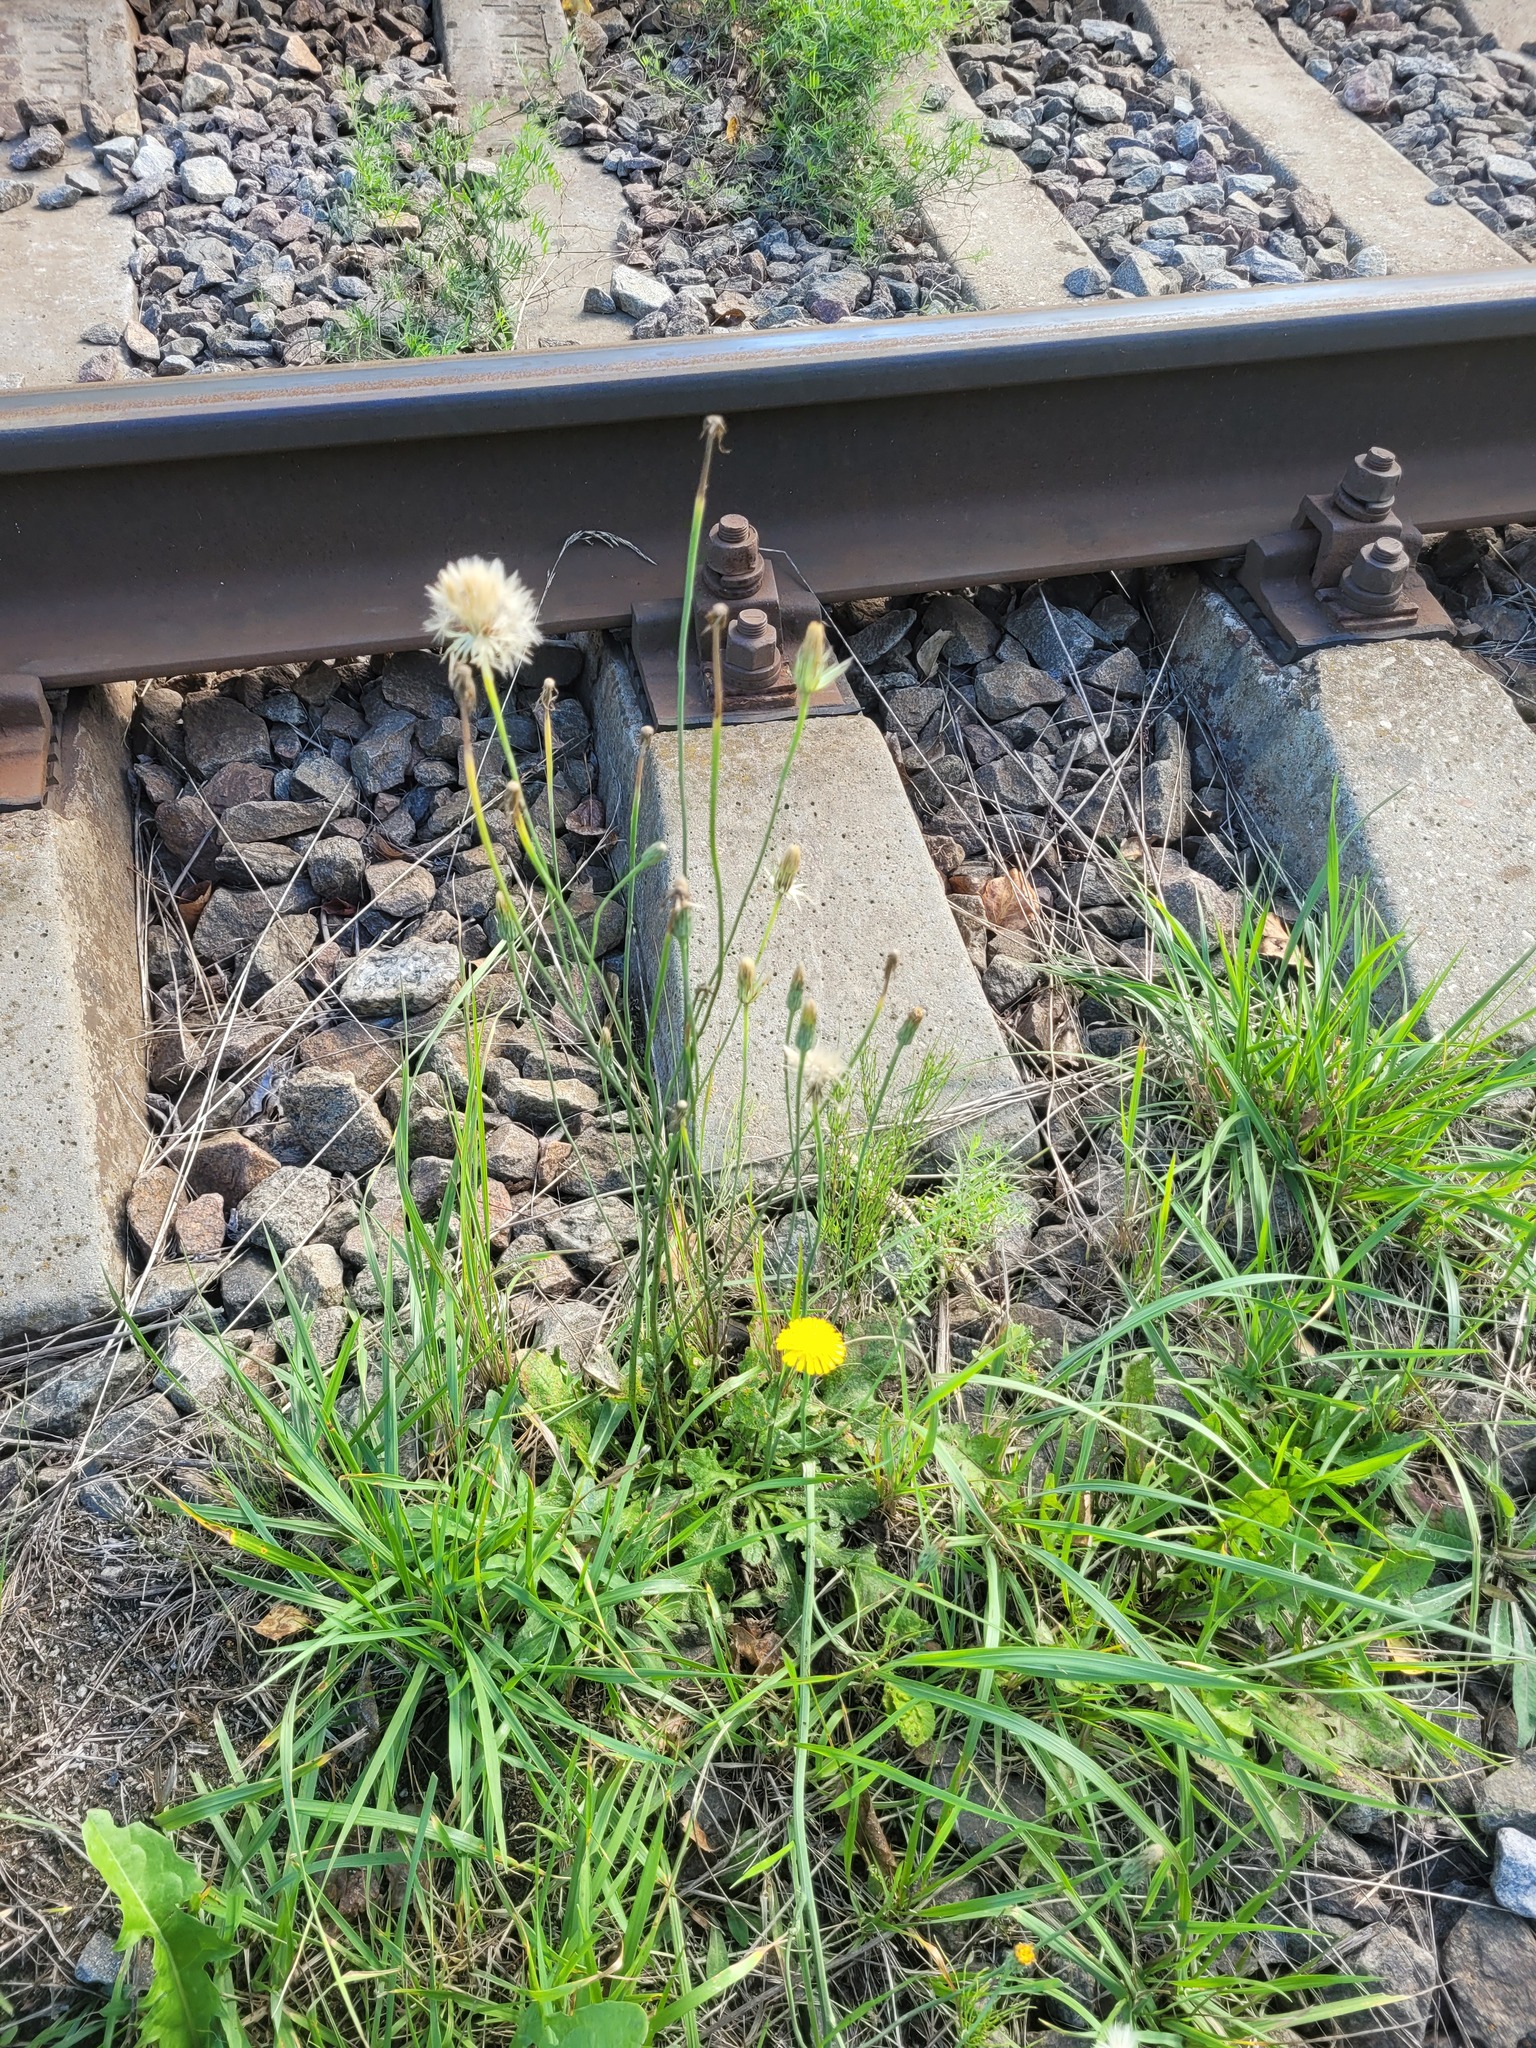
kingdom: Plantae
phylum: Tracheophyta
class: Magnoliopsida
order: Asterales
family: Asteraceae
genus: Hypochaeris
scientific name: Hypochaeris radicata
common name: Flatweed
